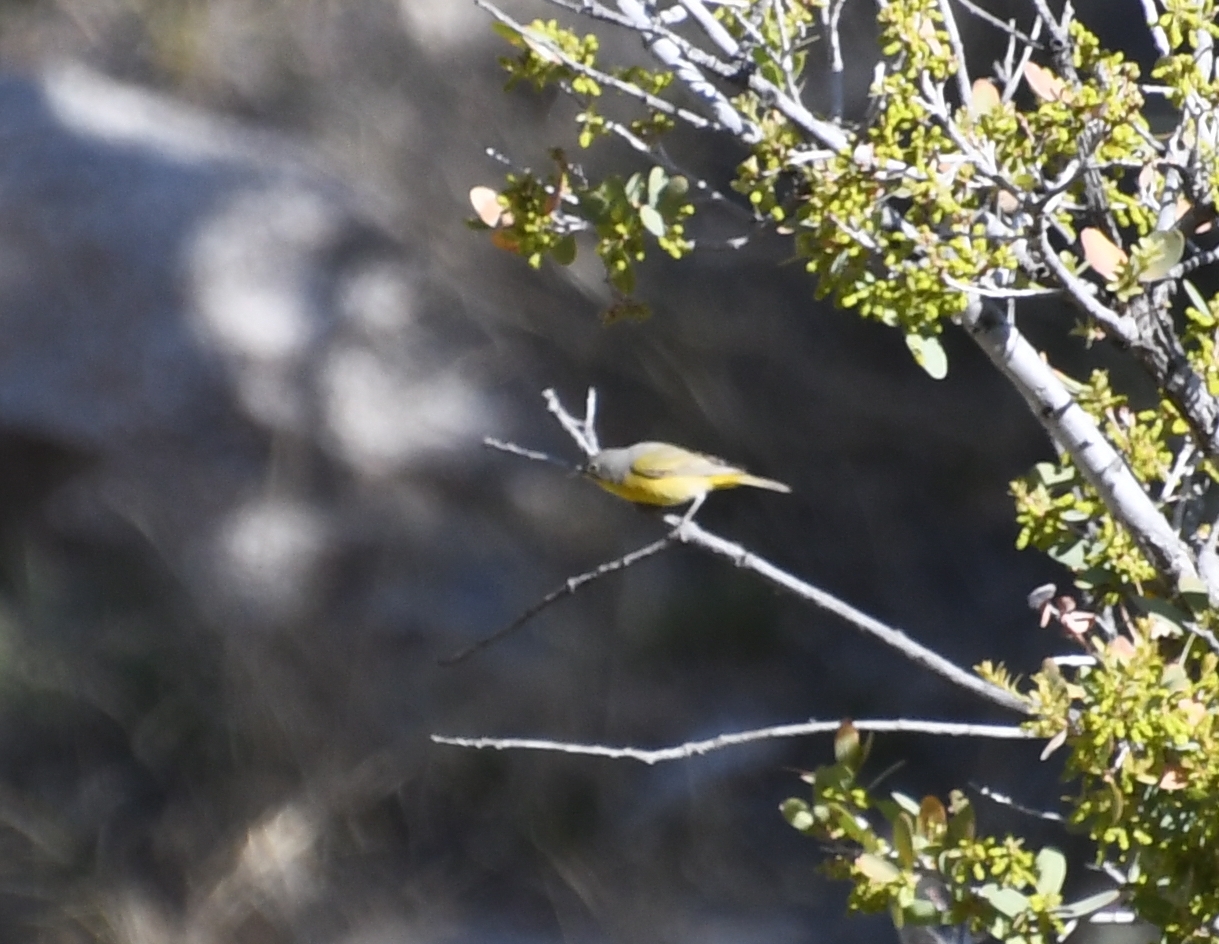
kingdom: Animalia
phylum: Chordata
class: Aves
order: Passeriformes
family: Parulidae
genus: Leiothlypis
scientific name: Leiothlypis ruficapilla
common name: Nashville warbler
